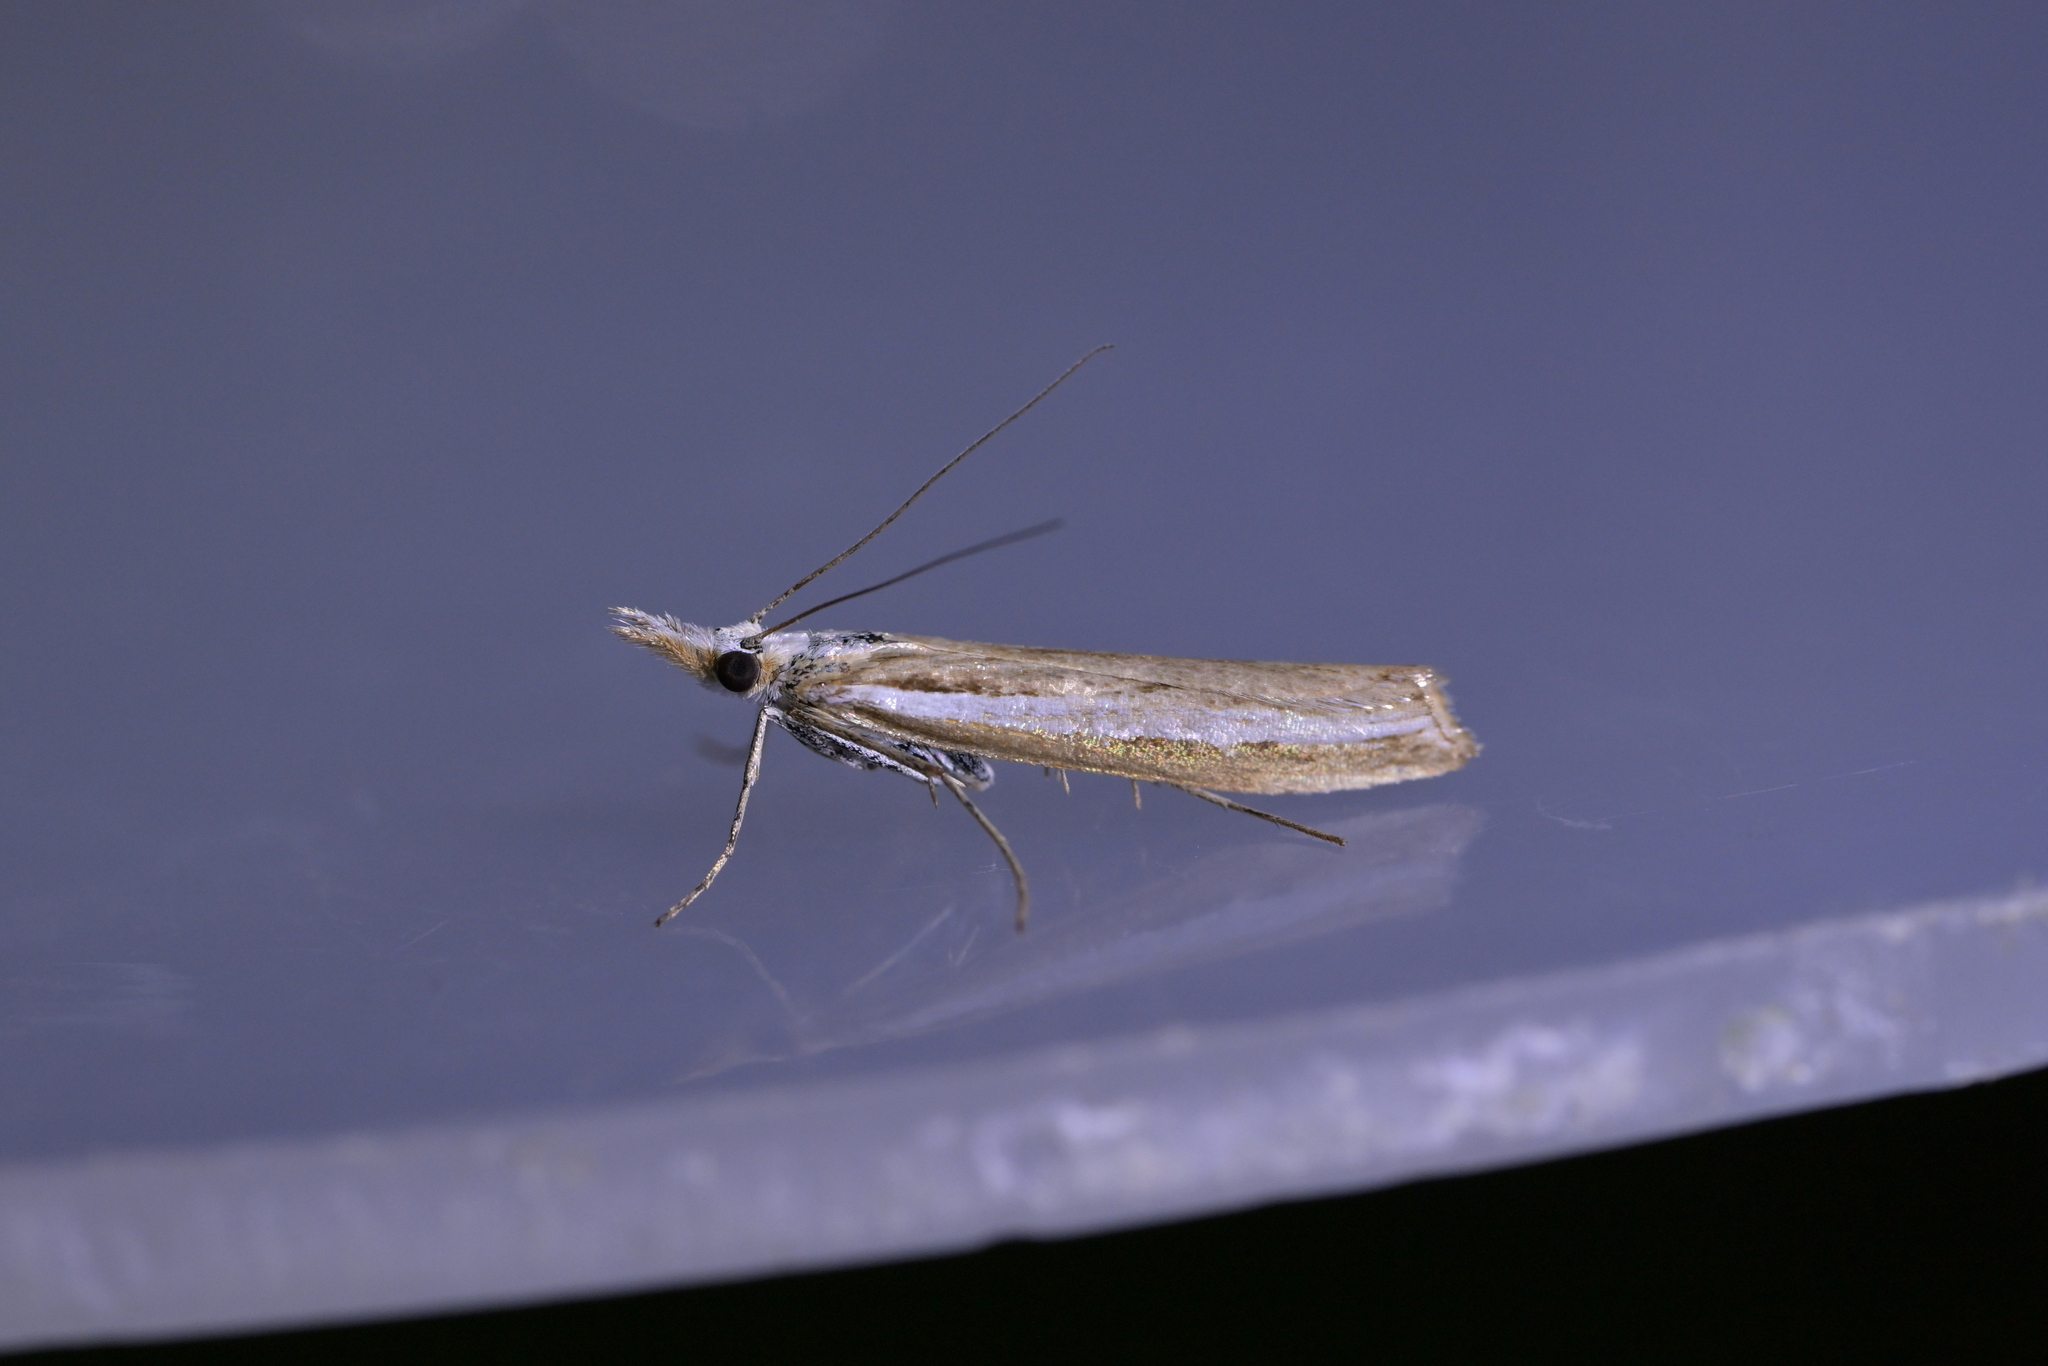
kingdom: Animalia
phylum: Arthropoda
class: Insecta
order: Lepidoptera
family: Crambidae
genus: Orocrambus
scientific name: Orocrambus vittellus
